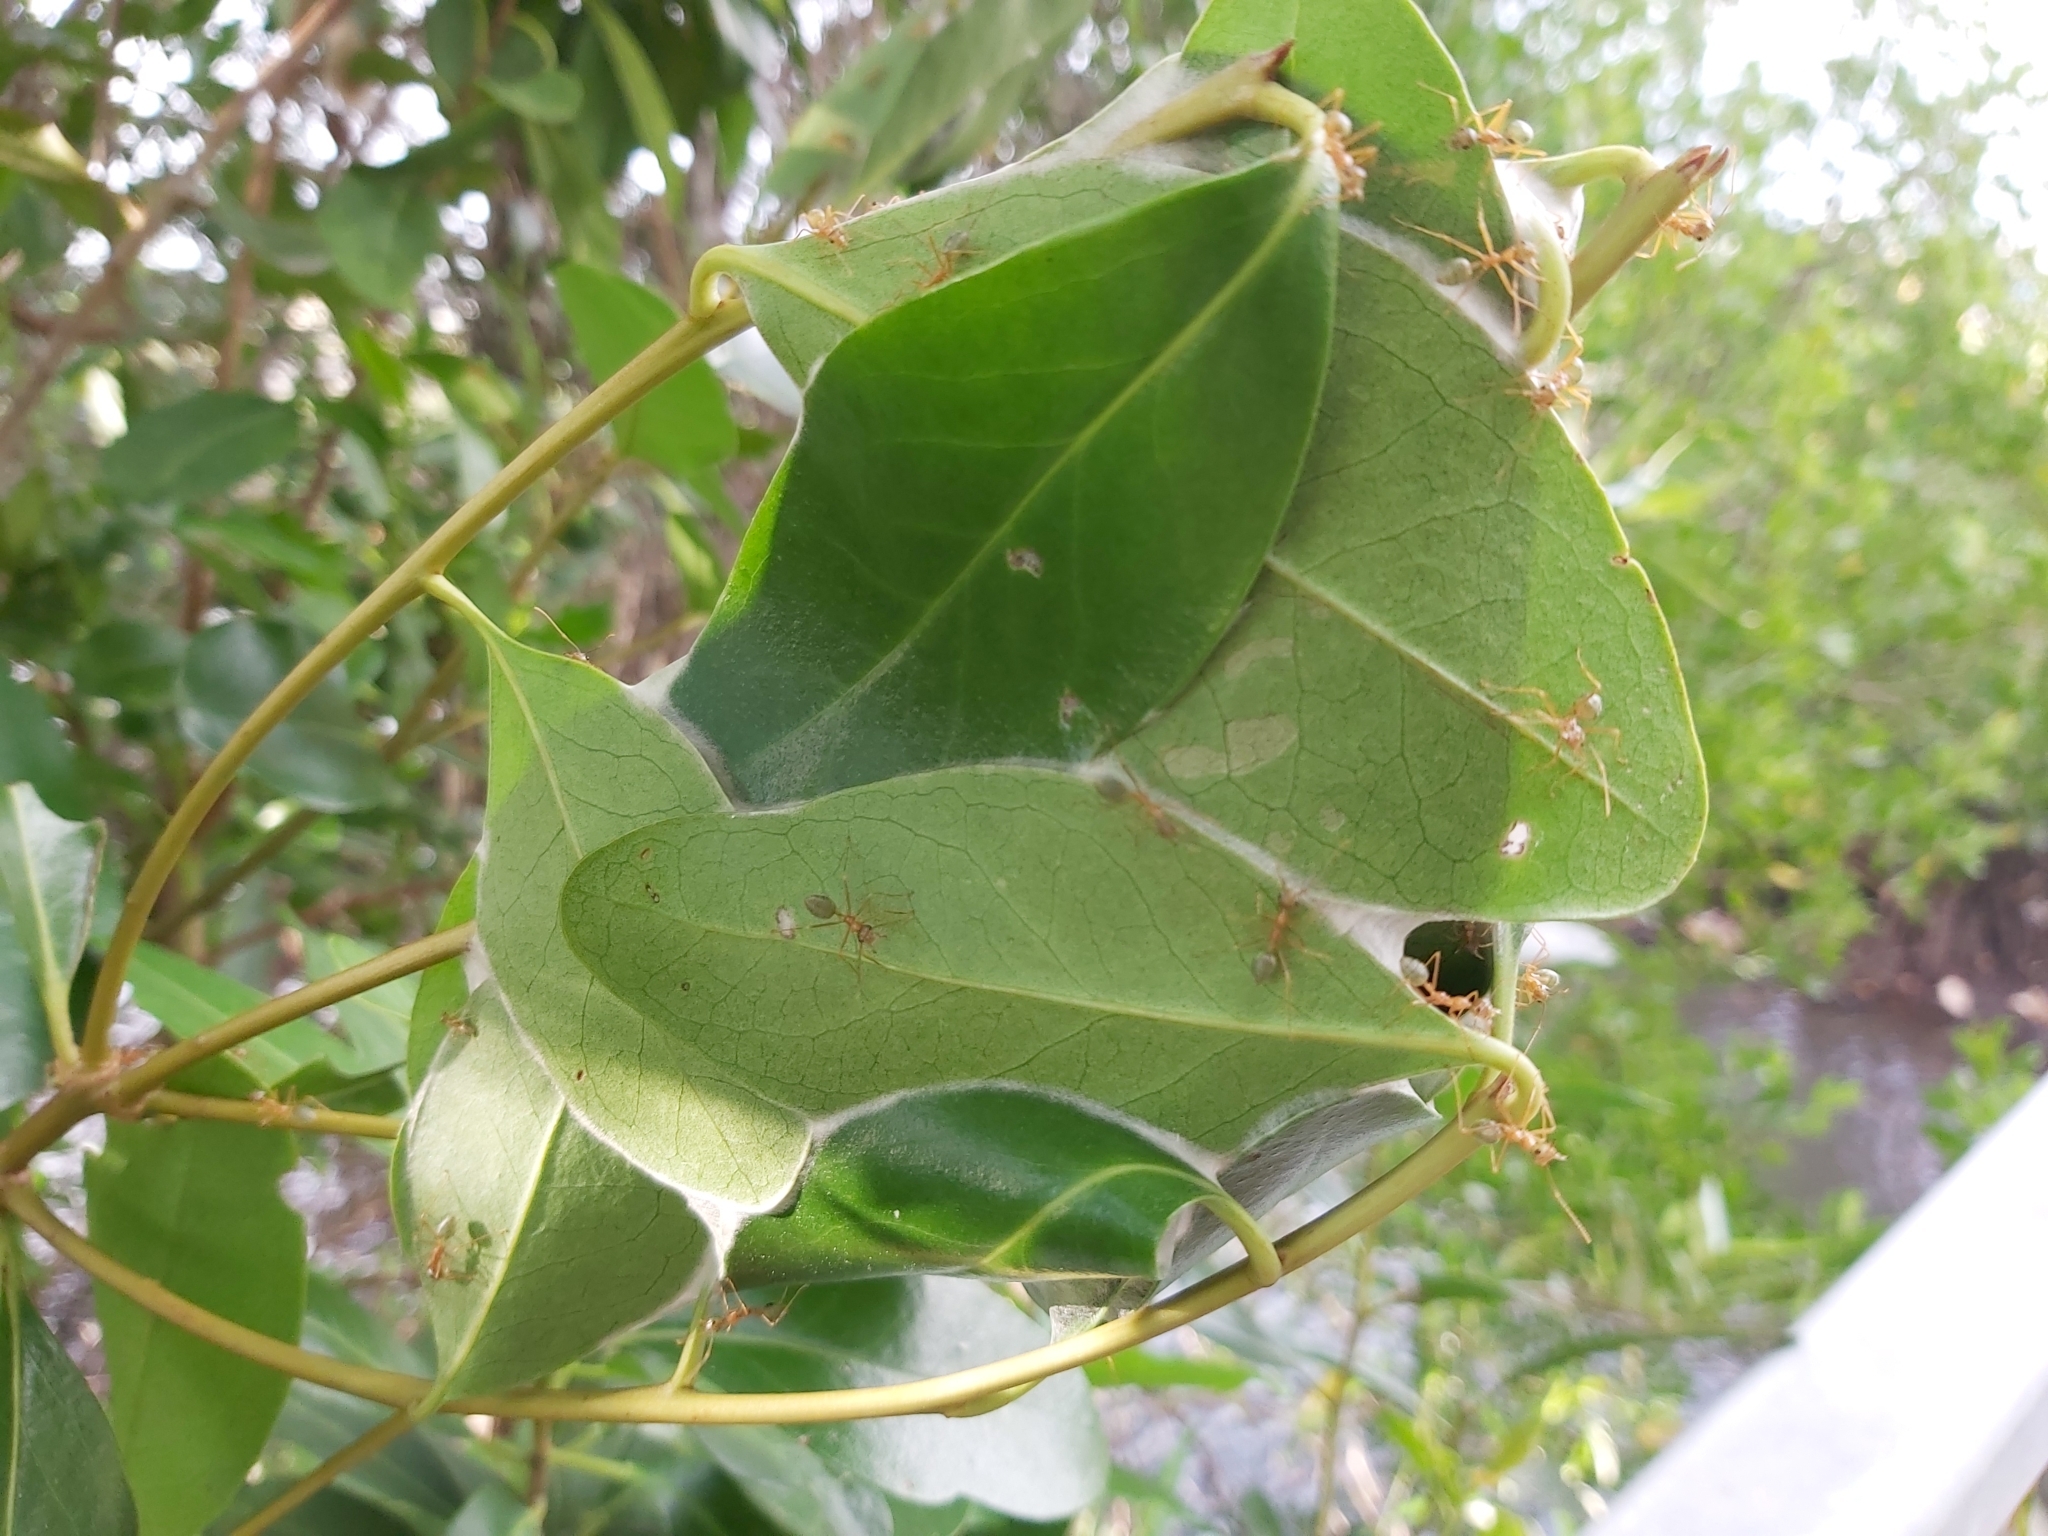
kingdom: Animalia
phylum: Arthropoda
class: Insecta
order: Hymenoptera
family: Formicidae
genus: Oecophylla
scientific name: Oecophylla smaragdina
